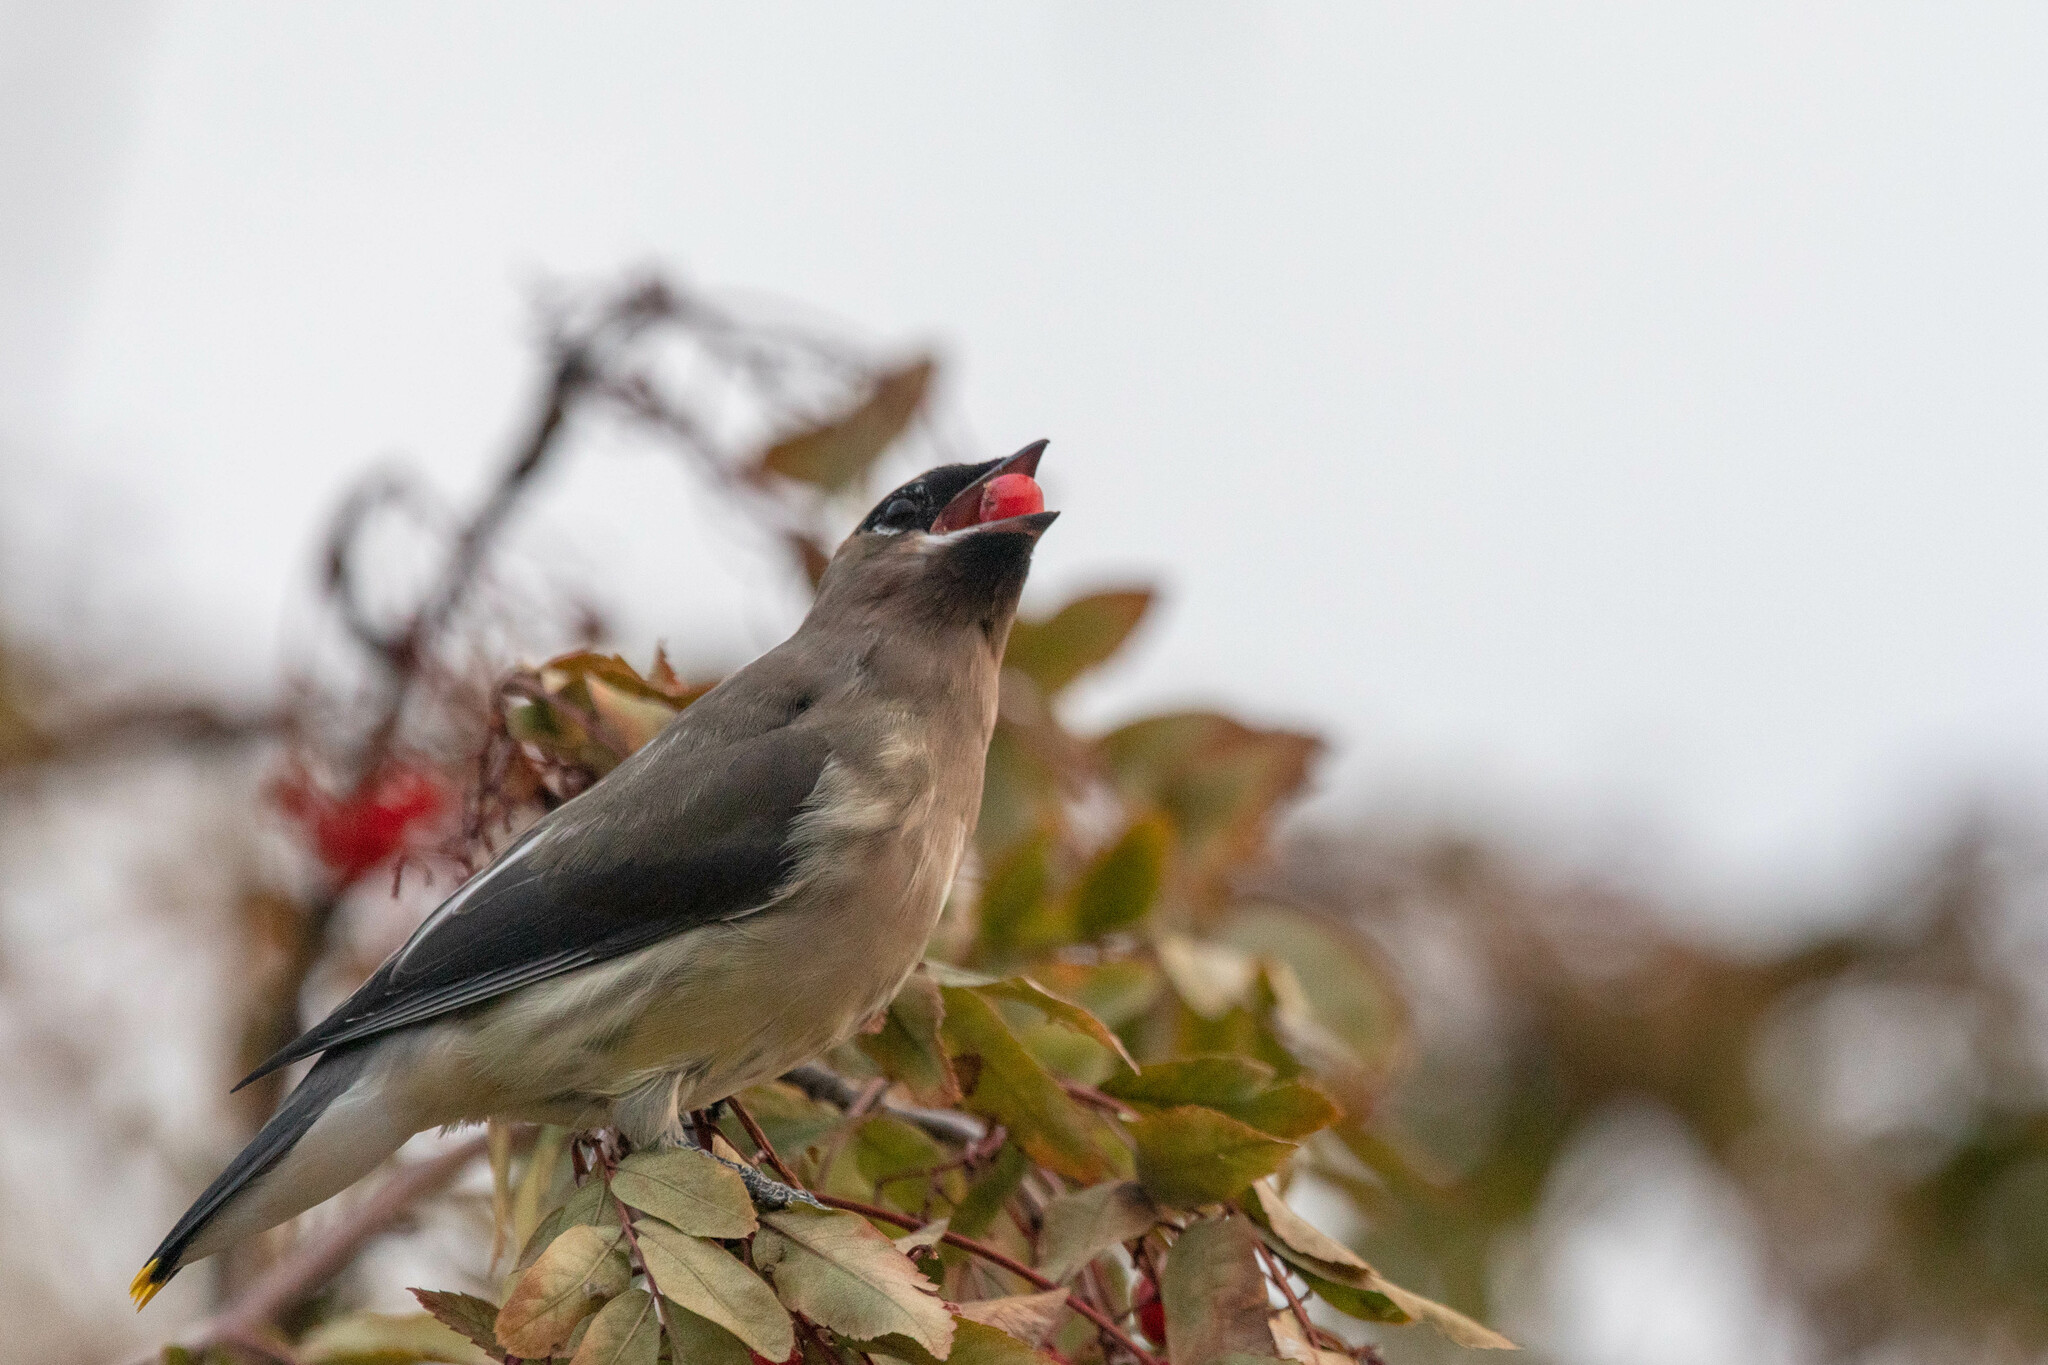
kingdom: Animalia
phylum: Chordata
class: Aves
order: Passeriformes
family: Bombycillidae
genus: Bombycilla
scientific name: Bombycilla cedrorum
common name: Cedar waxwing
